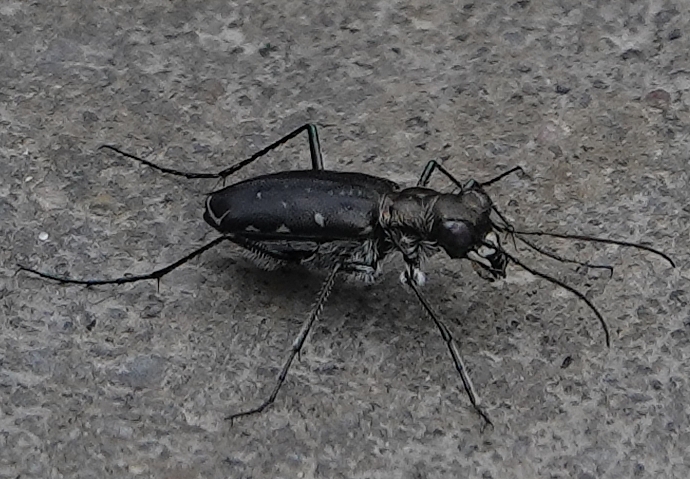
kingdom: Animalia
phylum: Arthropoda
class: Insecta
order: Coleoptera
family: Carabidae
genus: Cicindela
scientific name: Cicindela punctulata
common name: Punctured tiger beetle
